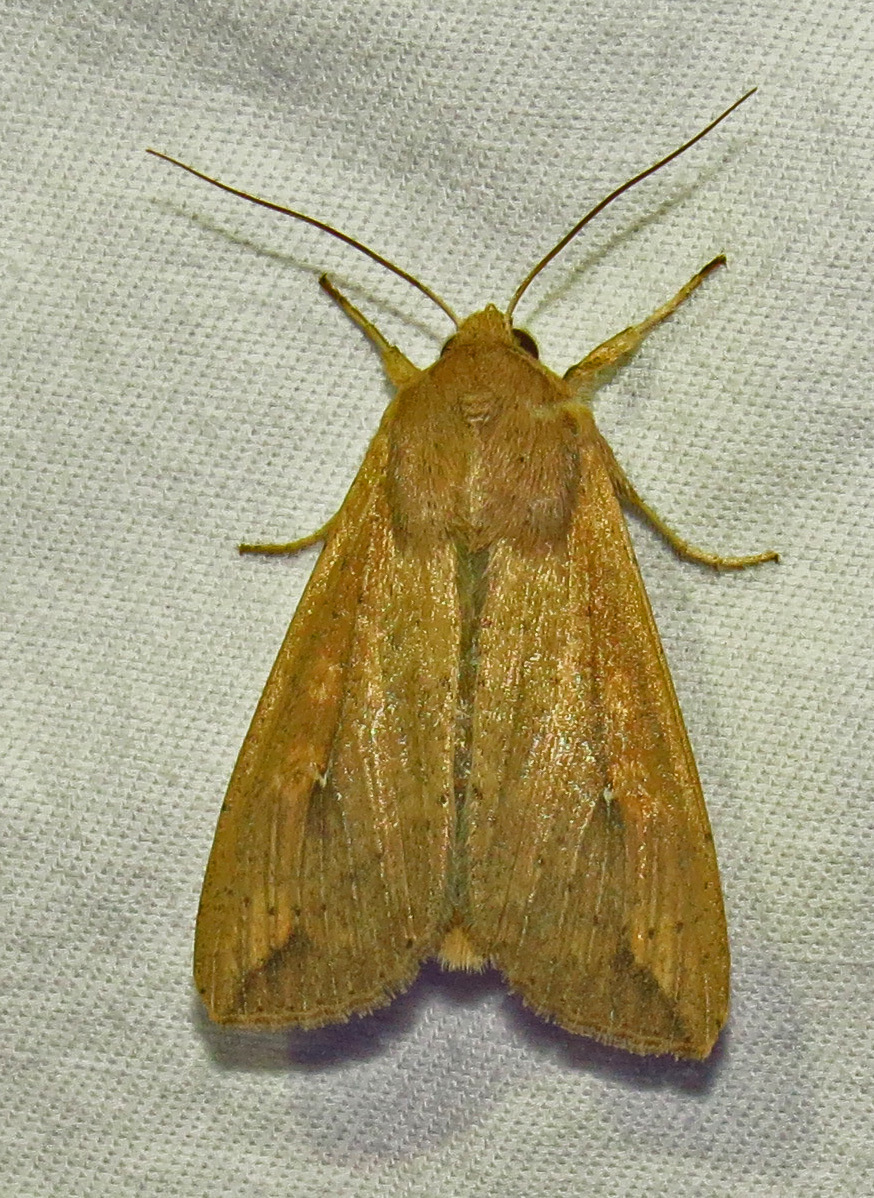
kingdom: Animalia
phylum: Arthropoda
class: Insecta
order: Lepidoptera
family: Noctuidae
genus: Mythimna
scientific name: Mythimna unipuncta
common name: White-speck
